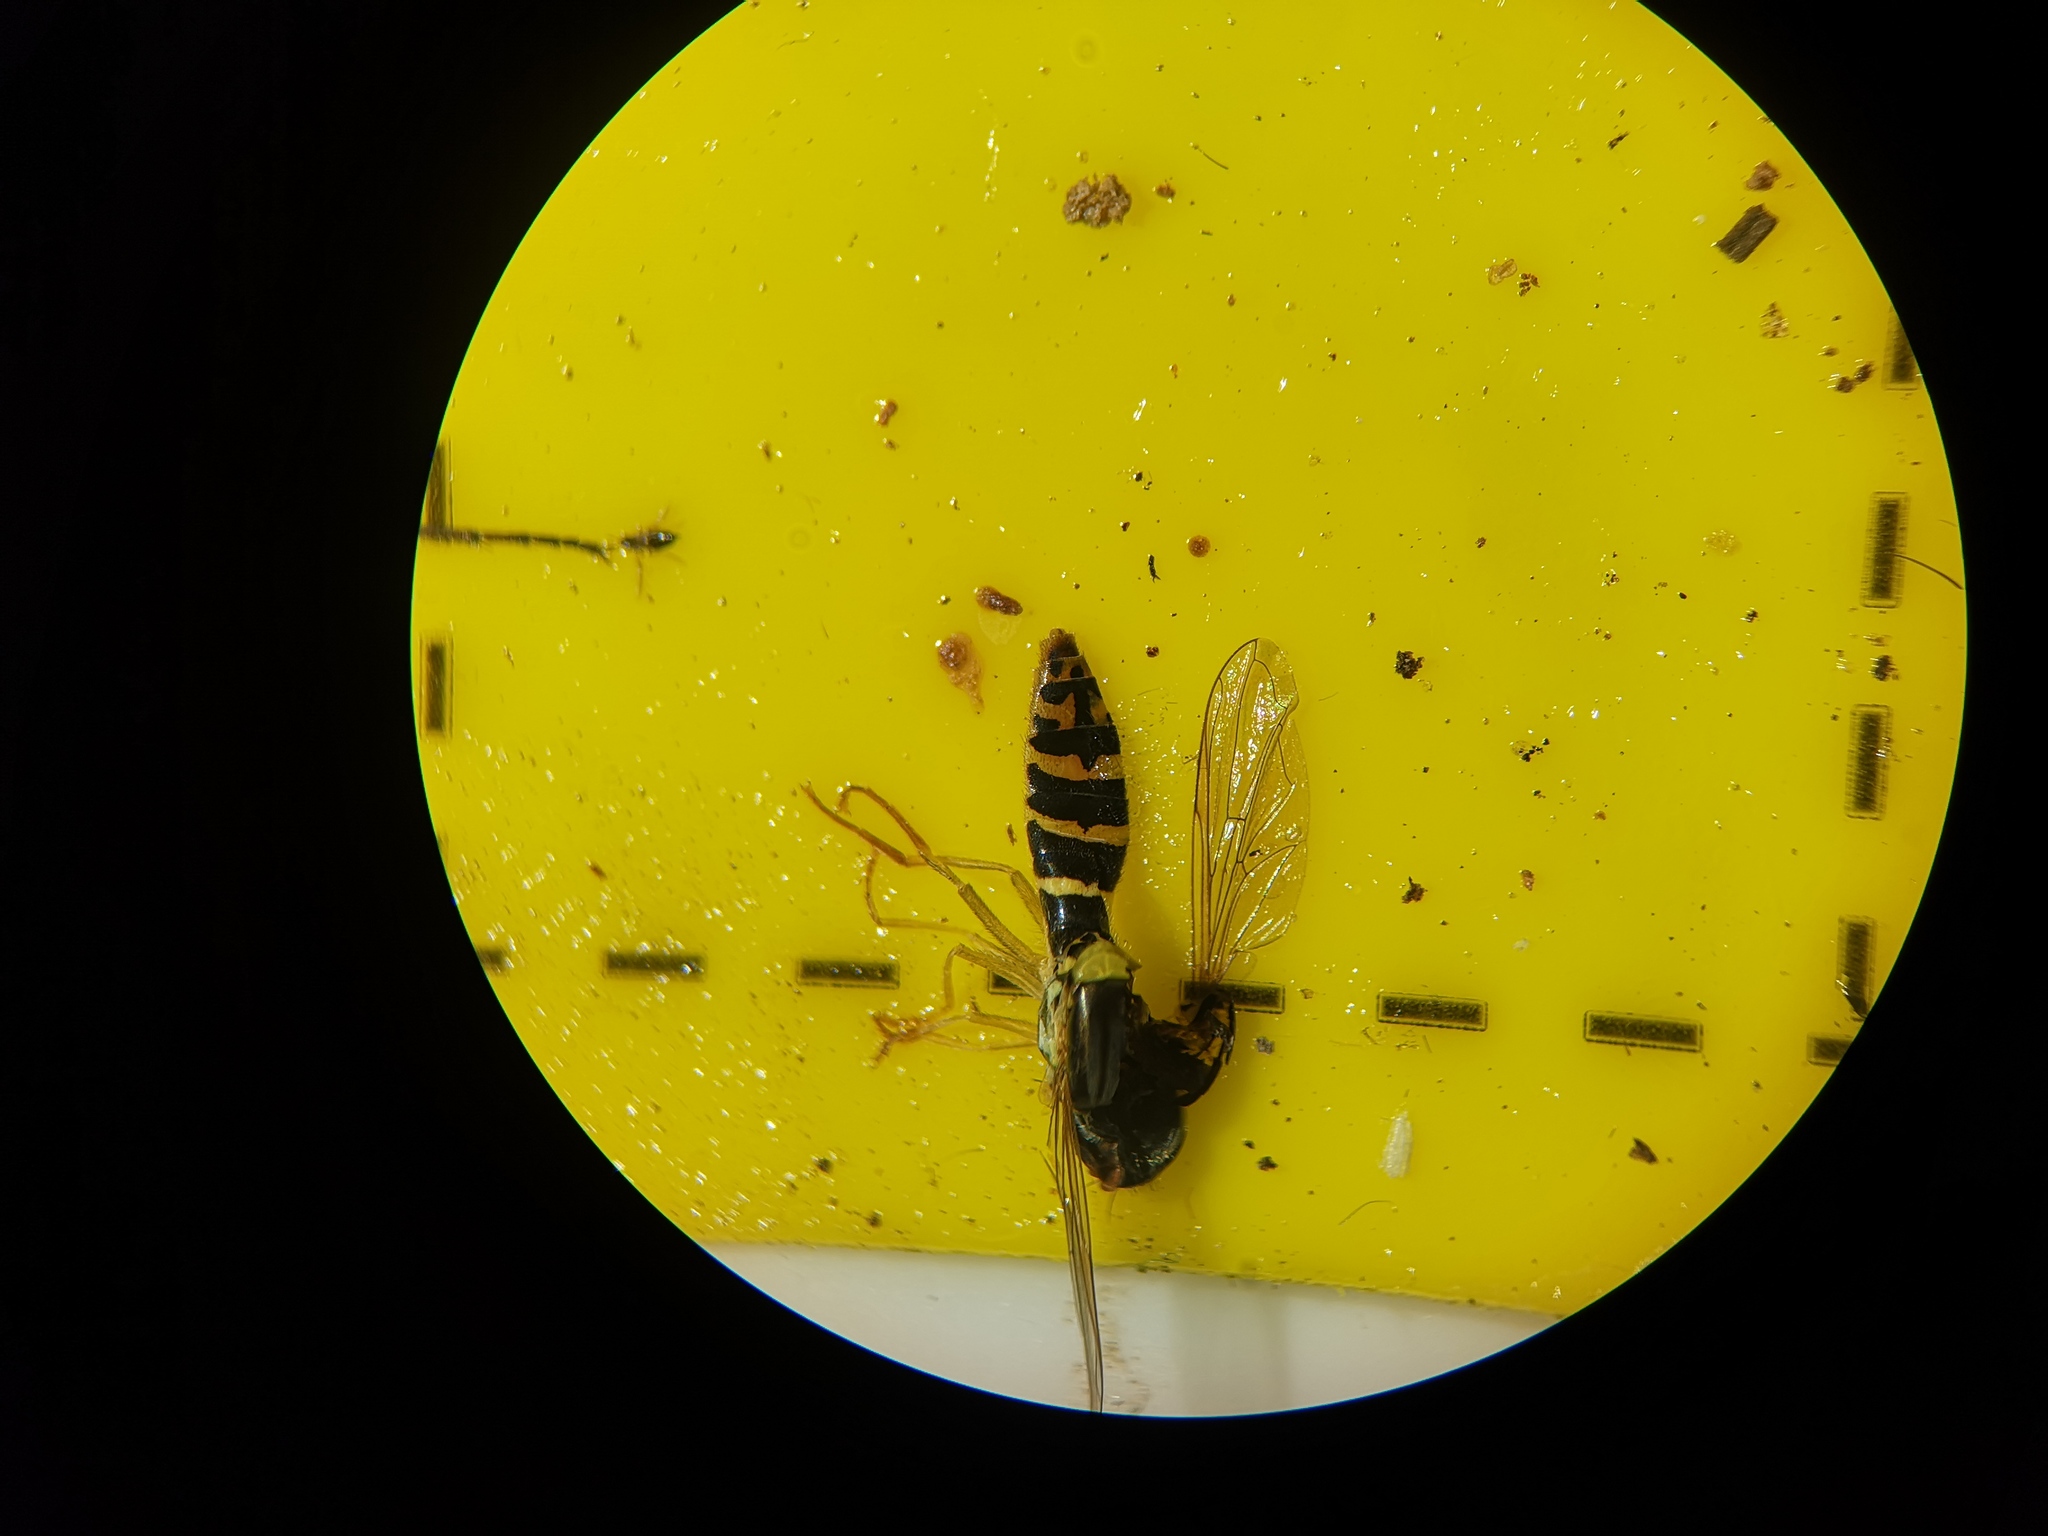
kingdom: Animalia
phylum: Arthropoda
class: Insecta
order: Diptera
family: Syrphidae
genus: Sphaerophoria
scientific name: Sphaerophoria
